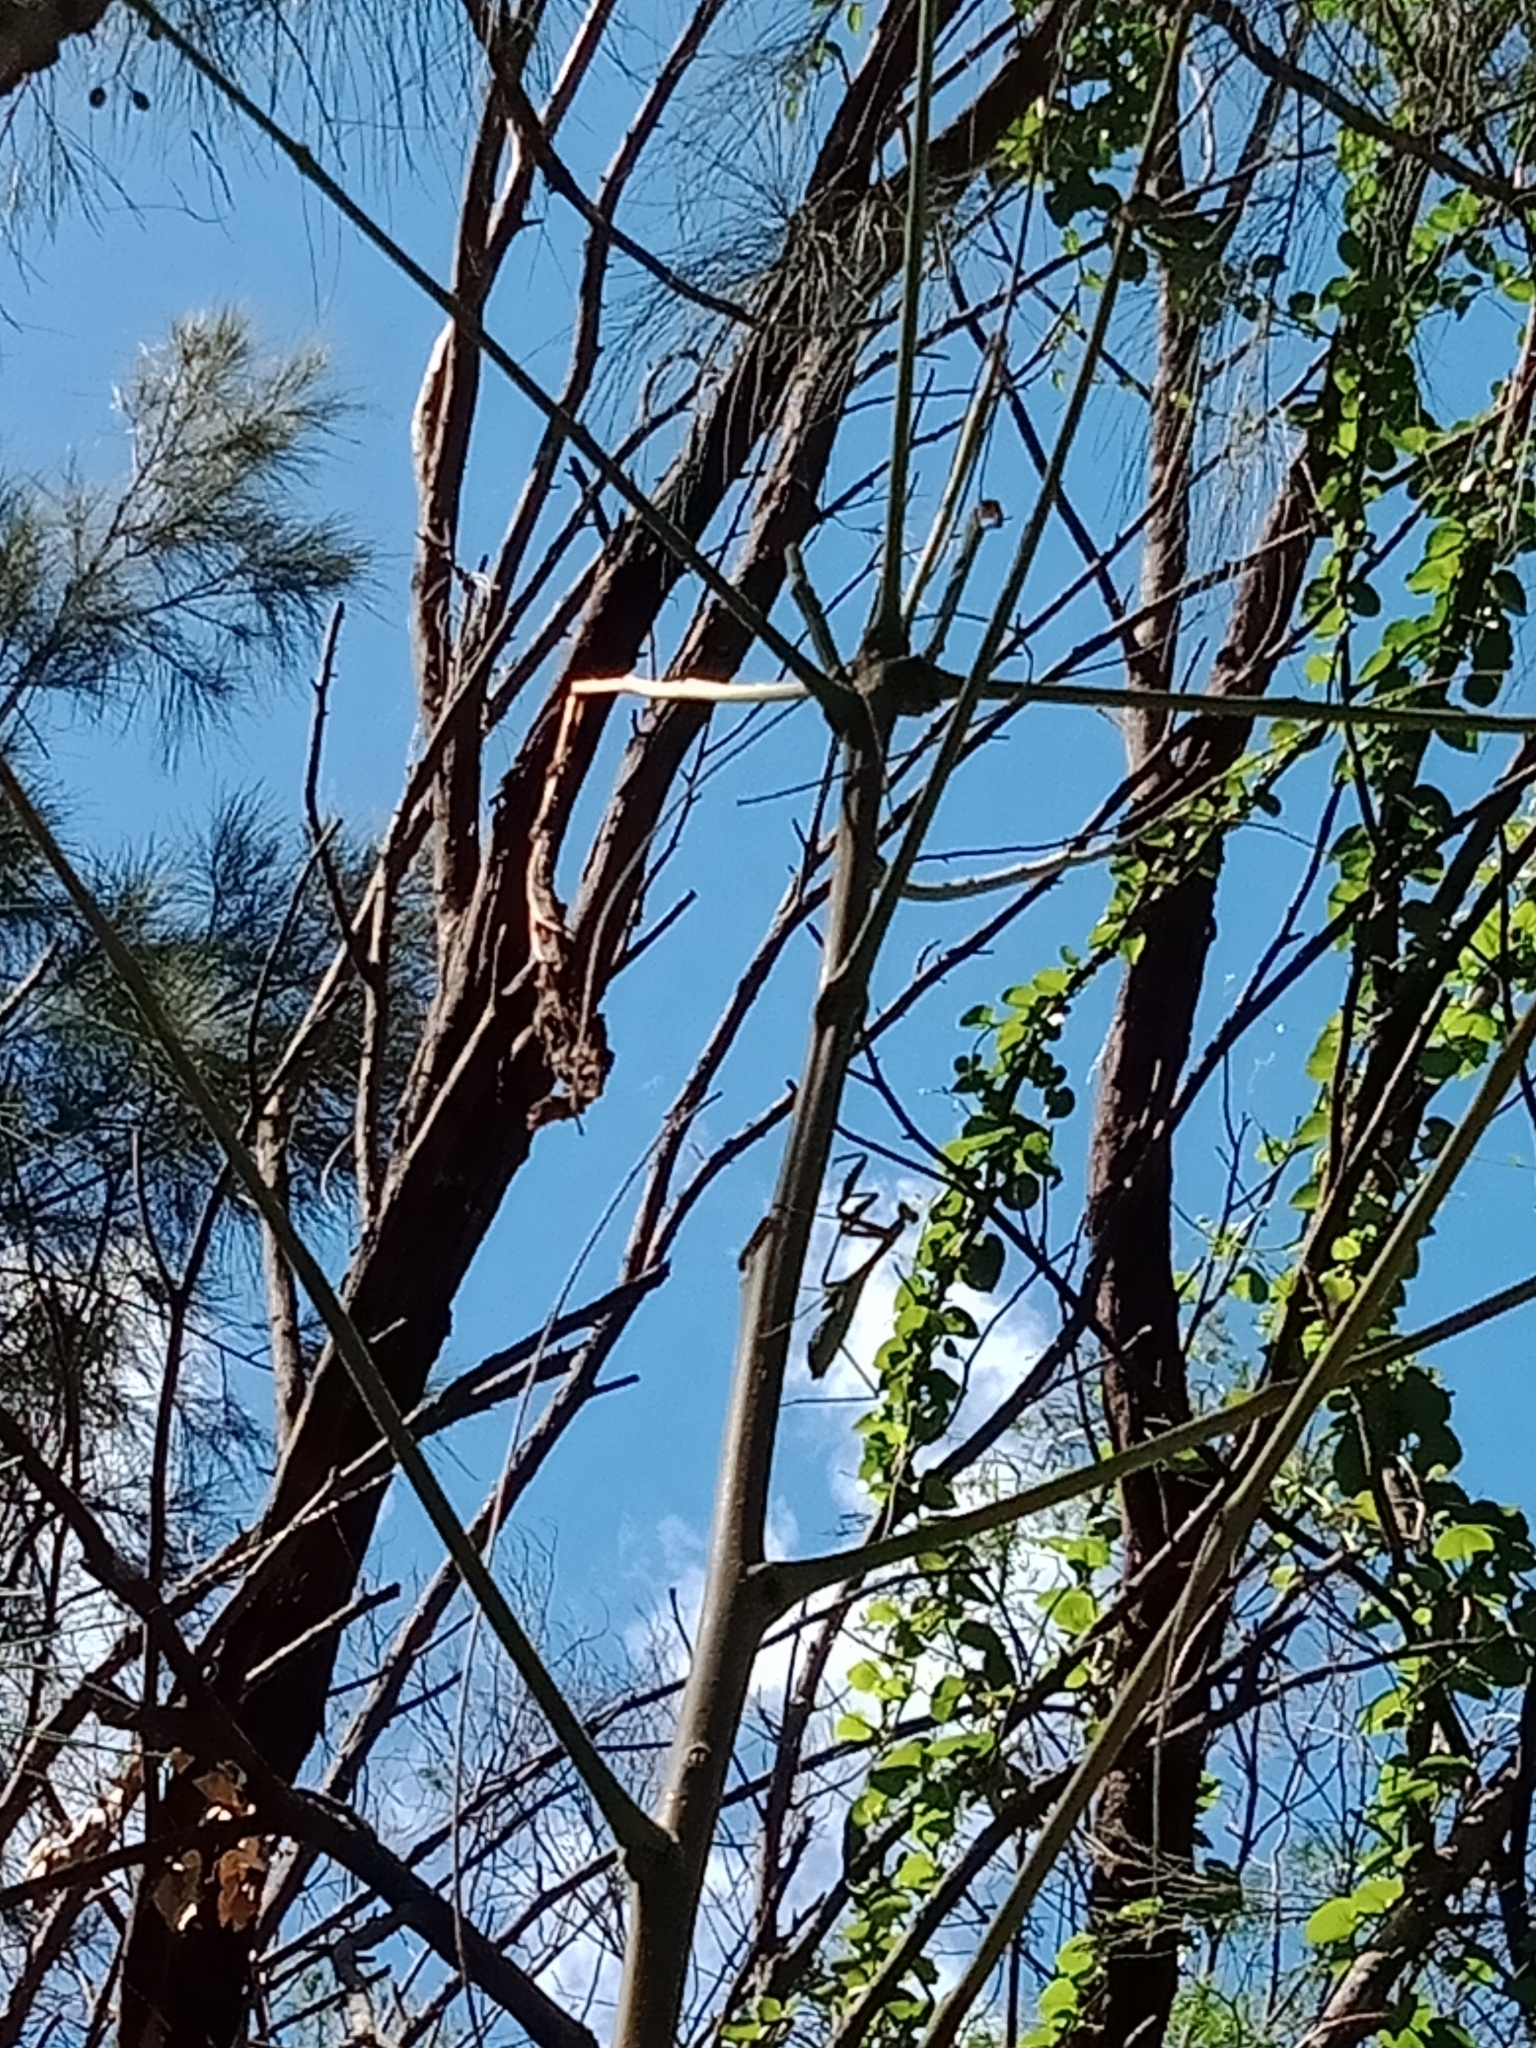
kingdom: Animalia
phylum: Arthropoda
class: Insecta
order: Mantodea
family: Mantidae
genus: Pseudomantis
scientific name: Pseudomantis albofimbriata
